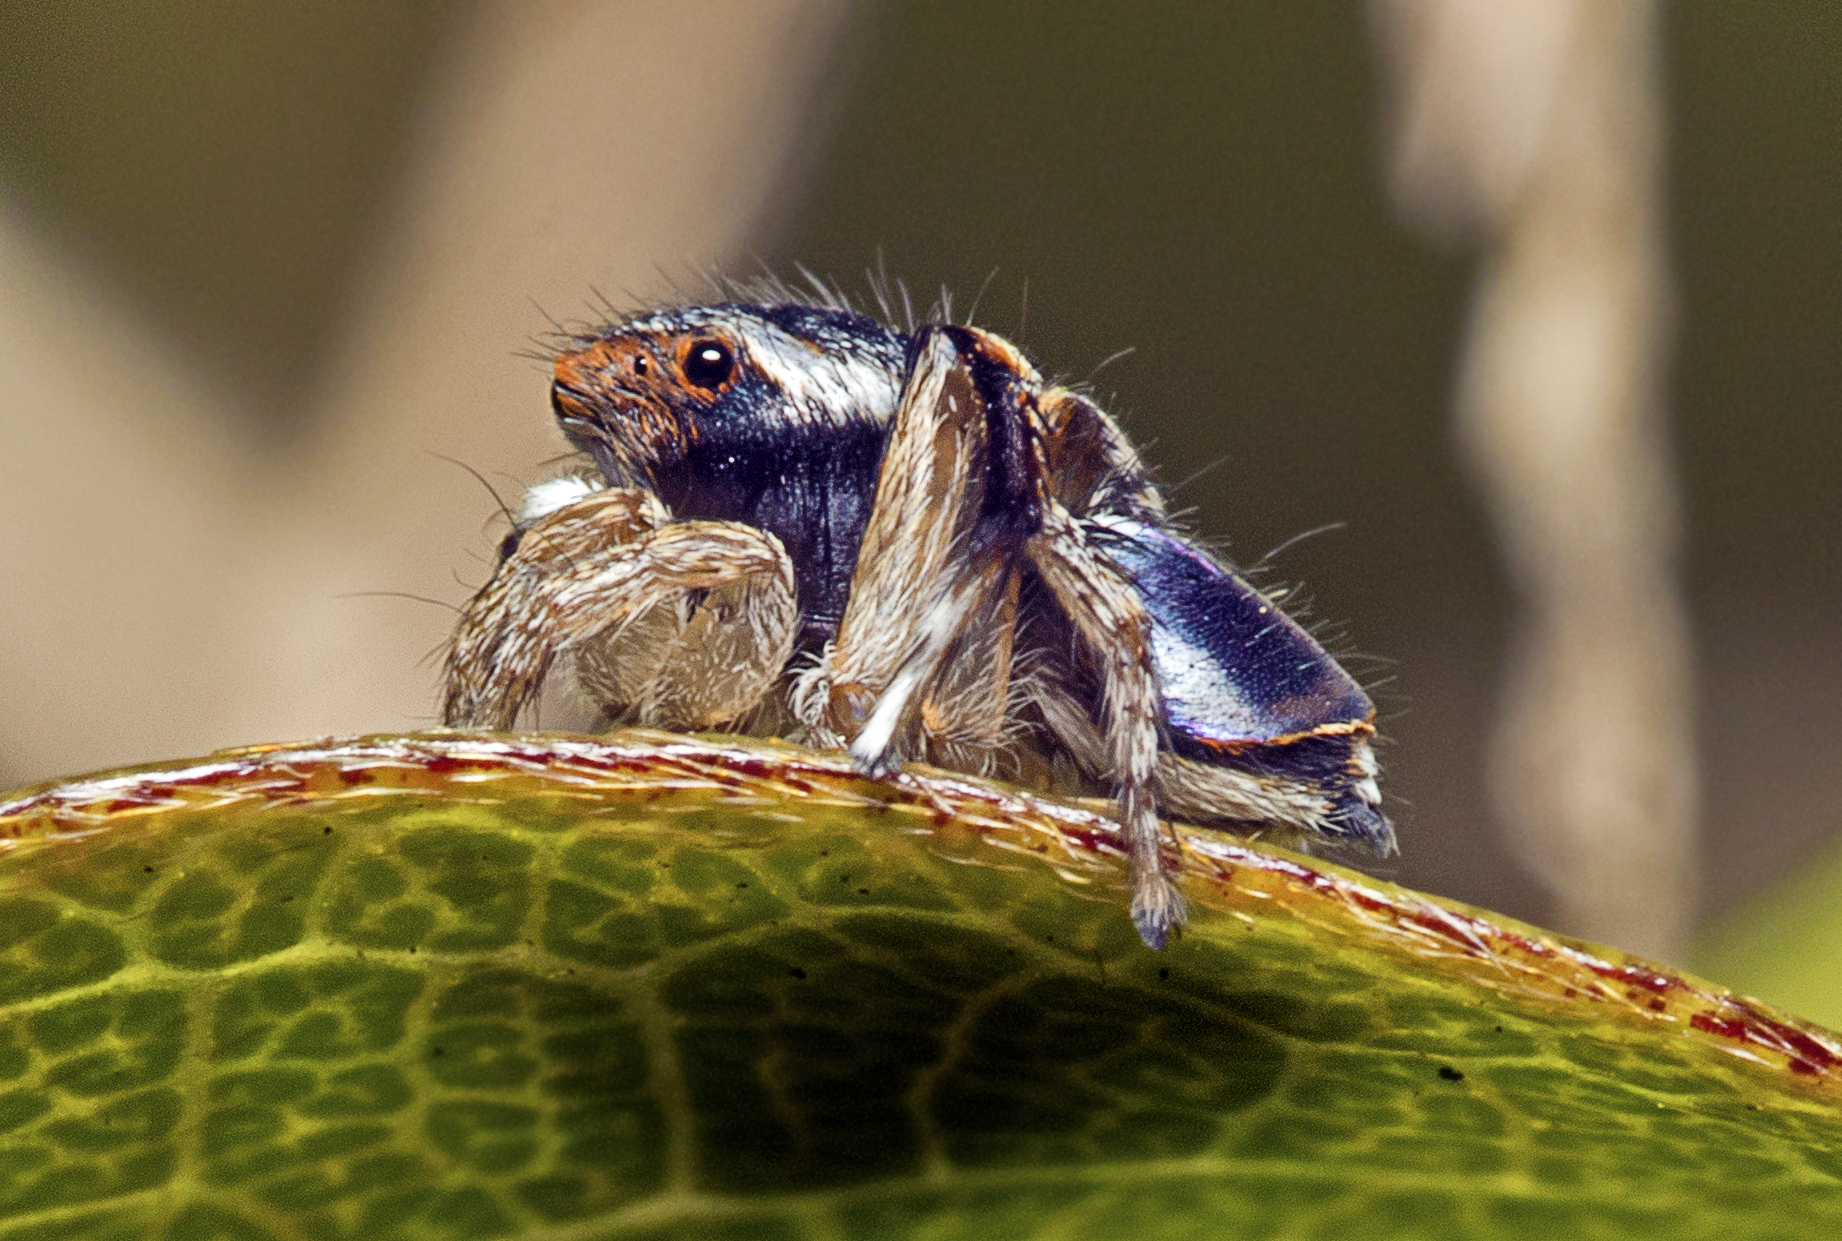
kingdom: Animalia
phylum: Arthropoda
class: Arachnida
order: Araneae
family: Salticidae
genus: Maratus
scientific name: Maratus anomalus
